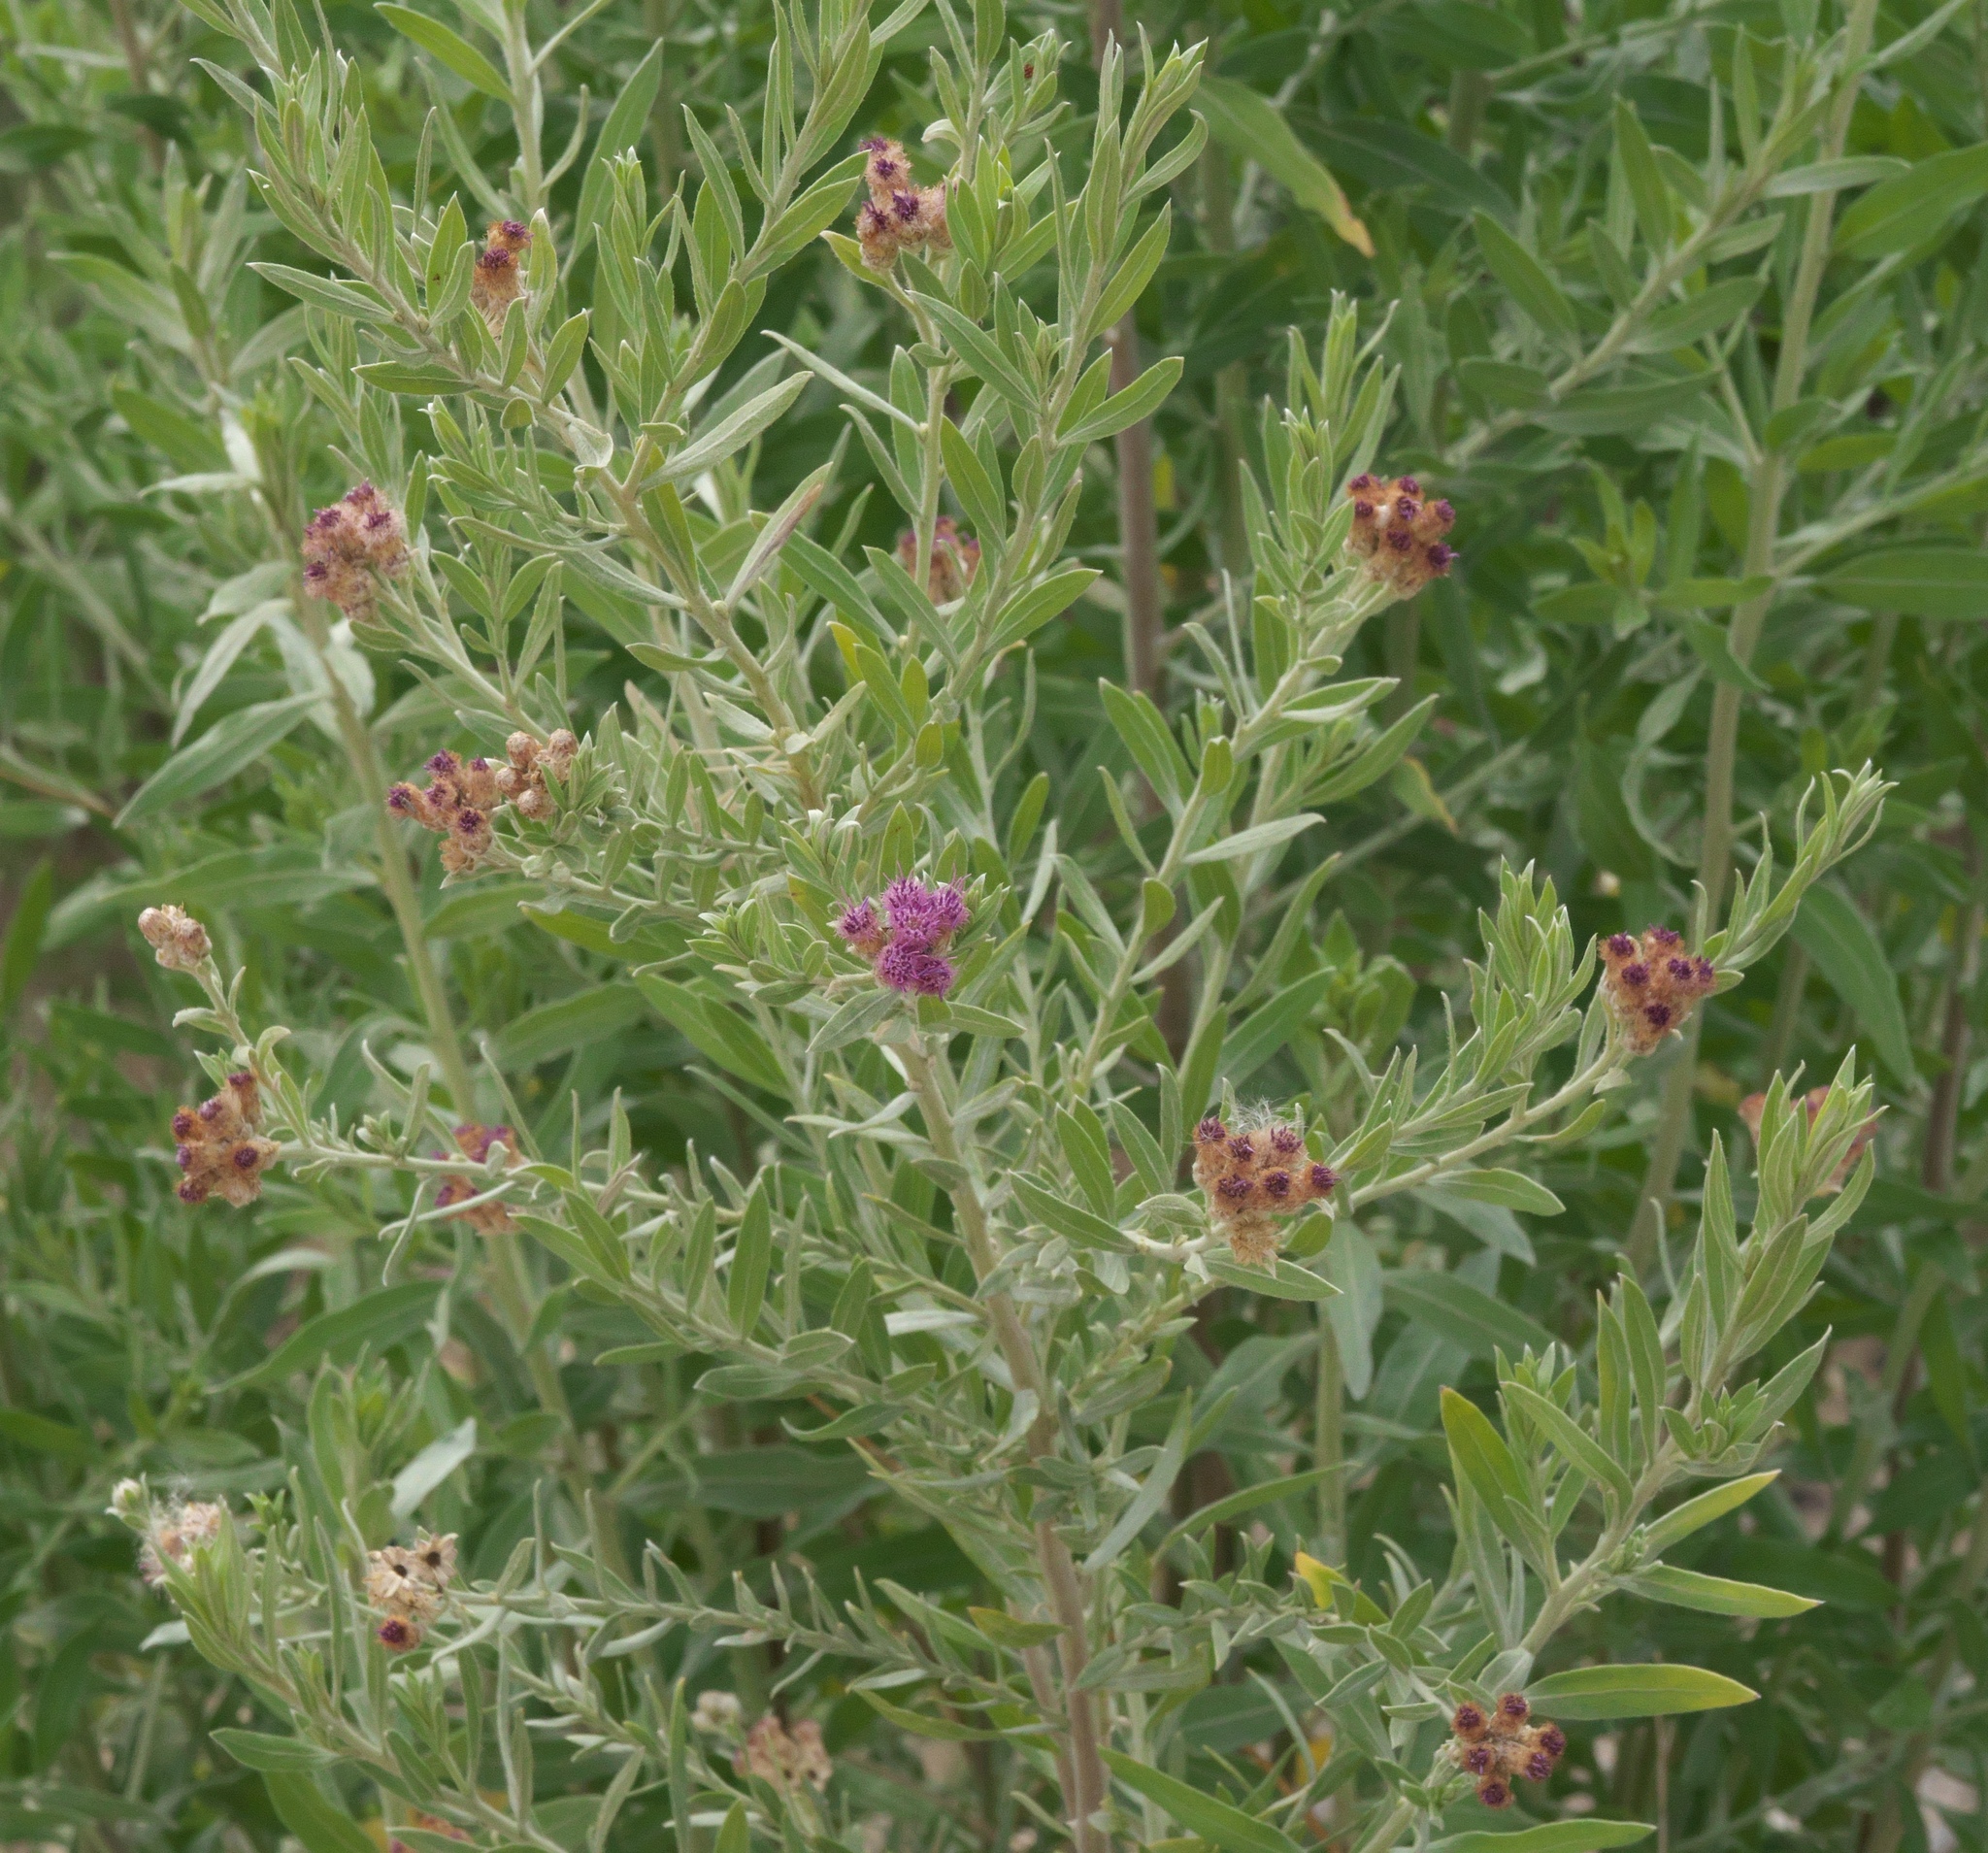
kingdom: Plantae
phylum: Tracheophyta
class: Magnoliopsida
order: Asterales
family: Asteraceae
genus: Pluchea
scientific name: Pluchea sericea
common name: Arrow-weed
